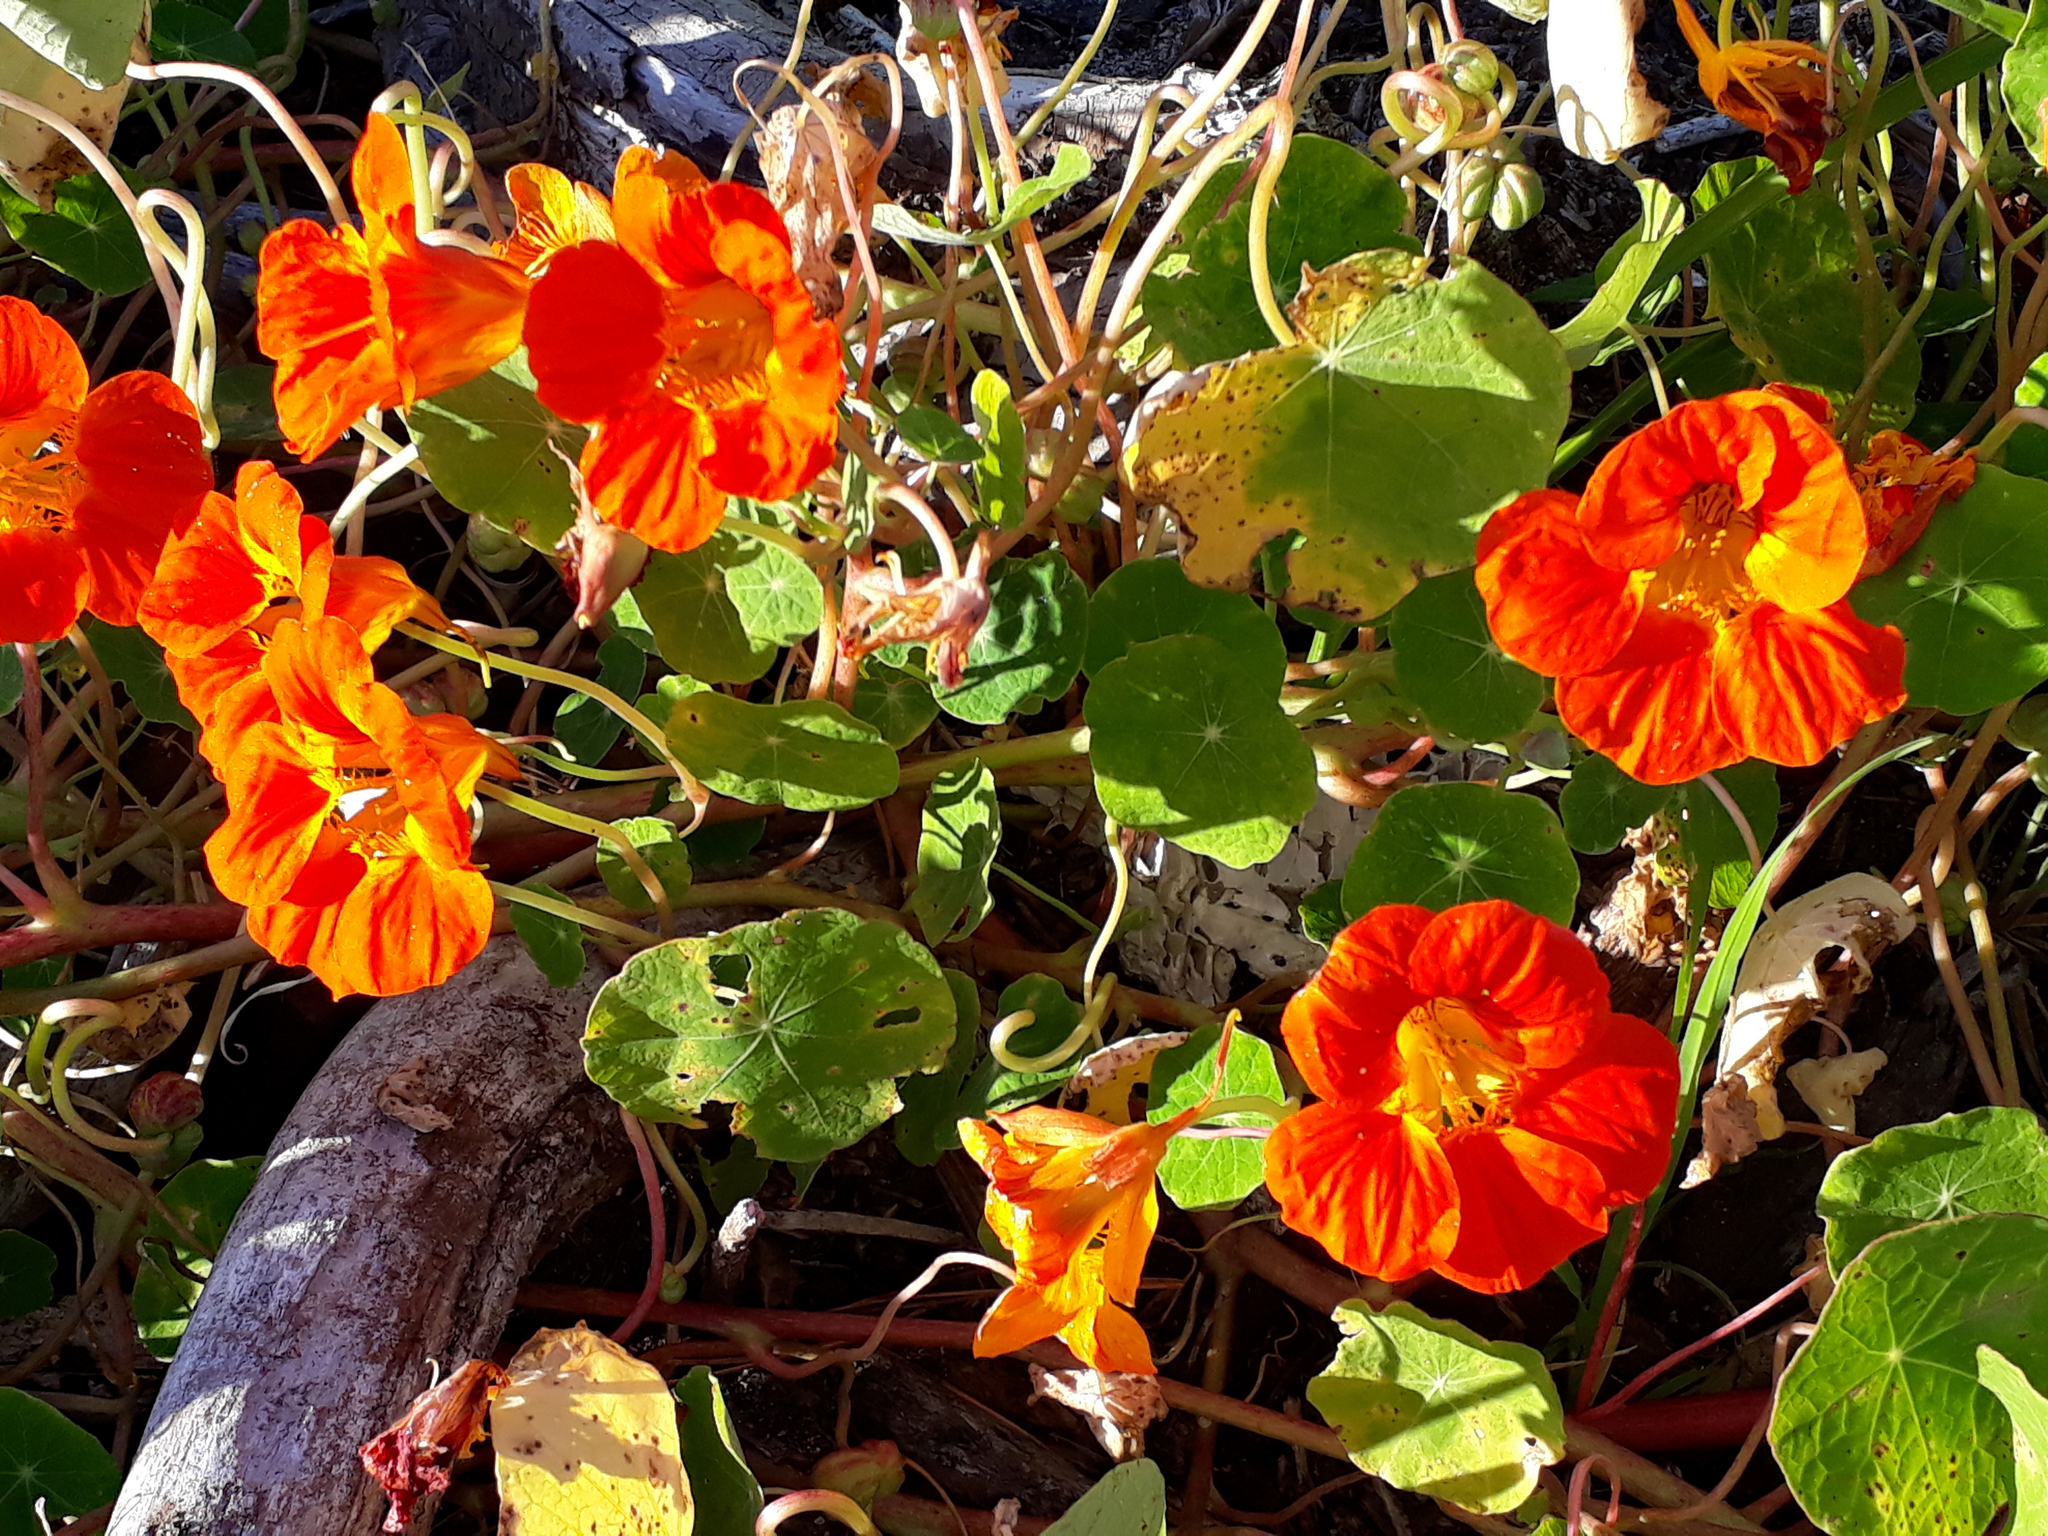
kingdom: Plantae
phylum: Tracheophyta
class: Magnoliopsida
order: Brassicales
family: Tropaeolaceae
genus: Tropaeolum
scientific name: Tropaeolum majus
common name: Nasturtium
